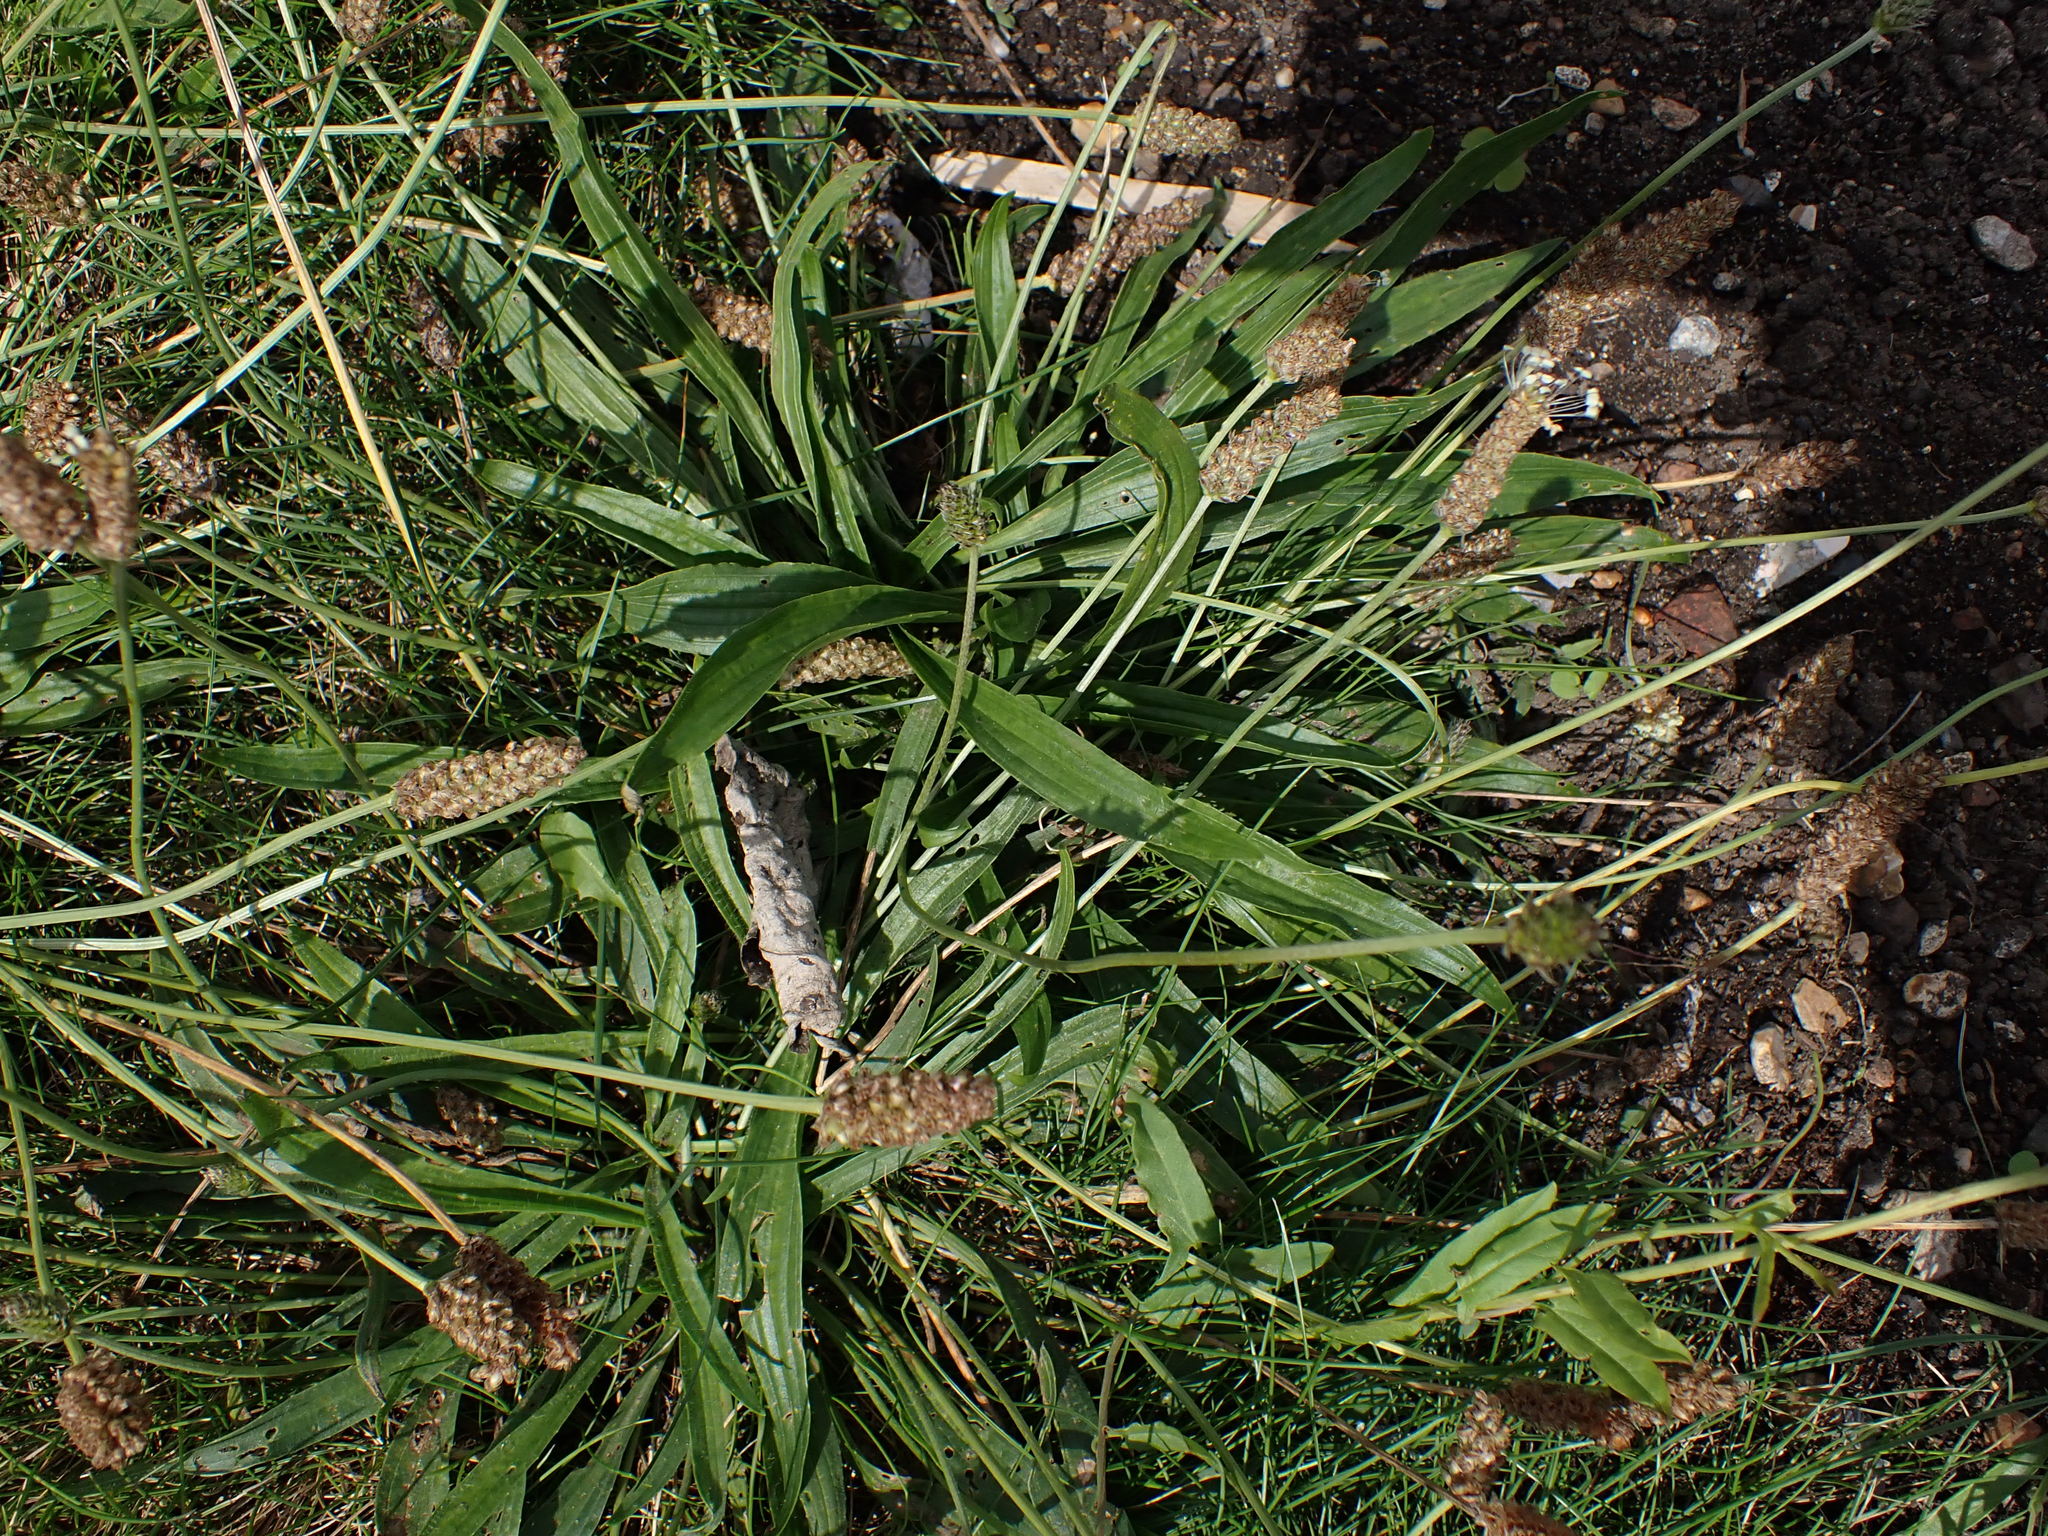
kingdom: Plantae
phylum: Tracheophyta
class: Magnoliopsida
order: Lamiales
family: Plantaginaceae
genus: Plantago
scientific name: Plantago lanceolata
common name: Ribwort plantain
